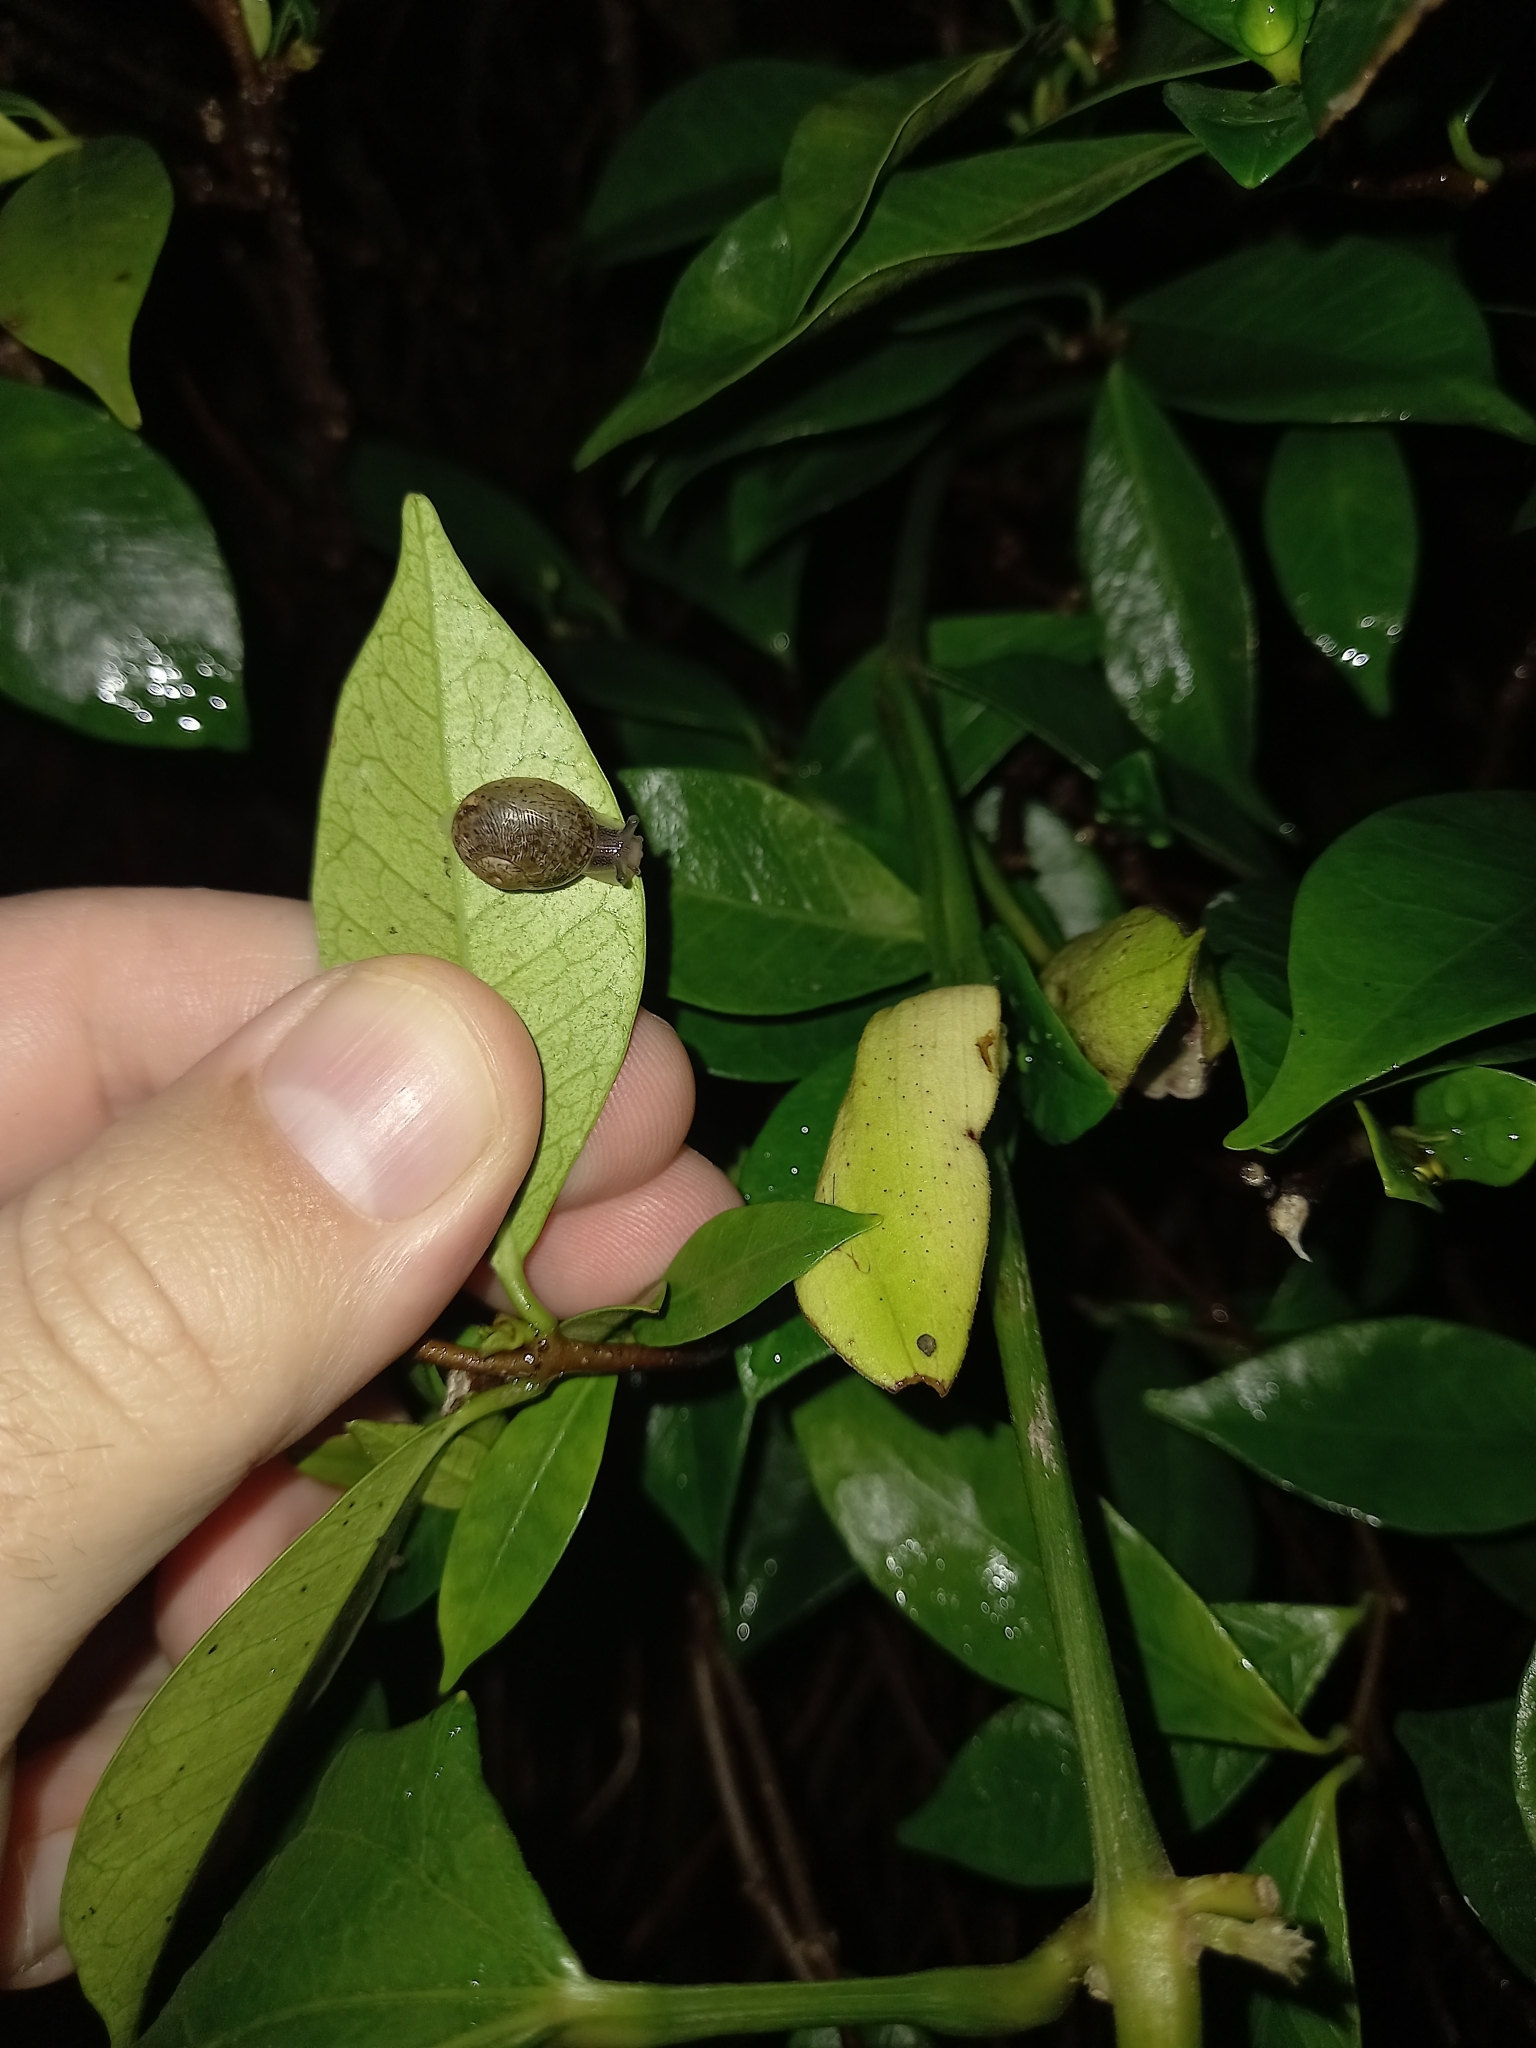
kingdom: Animalia
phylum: Mollusca
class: Gastropoda
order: Stylommatophora
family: Helicidae
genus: Cornu
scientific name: Cornu aspersum
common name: Brown garden snail
